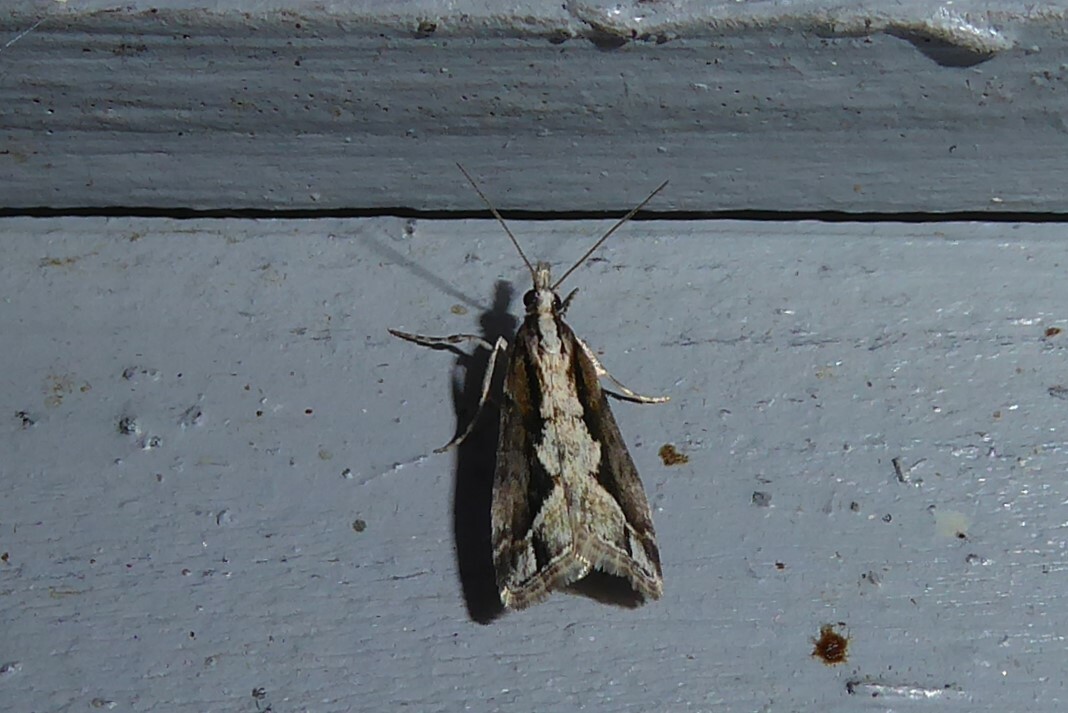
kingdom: Animalia
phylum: Arthropoda
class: Insecta
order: Lepidoptera
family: Crambidae
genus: Eudonia
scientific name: Eudonia steropaea
